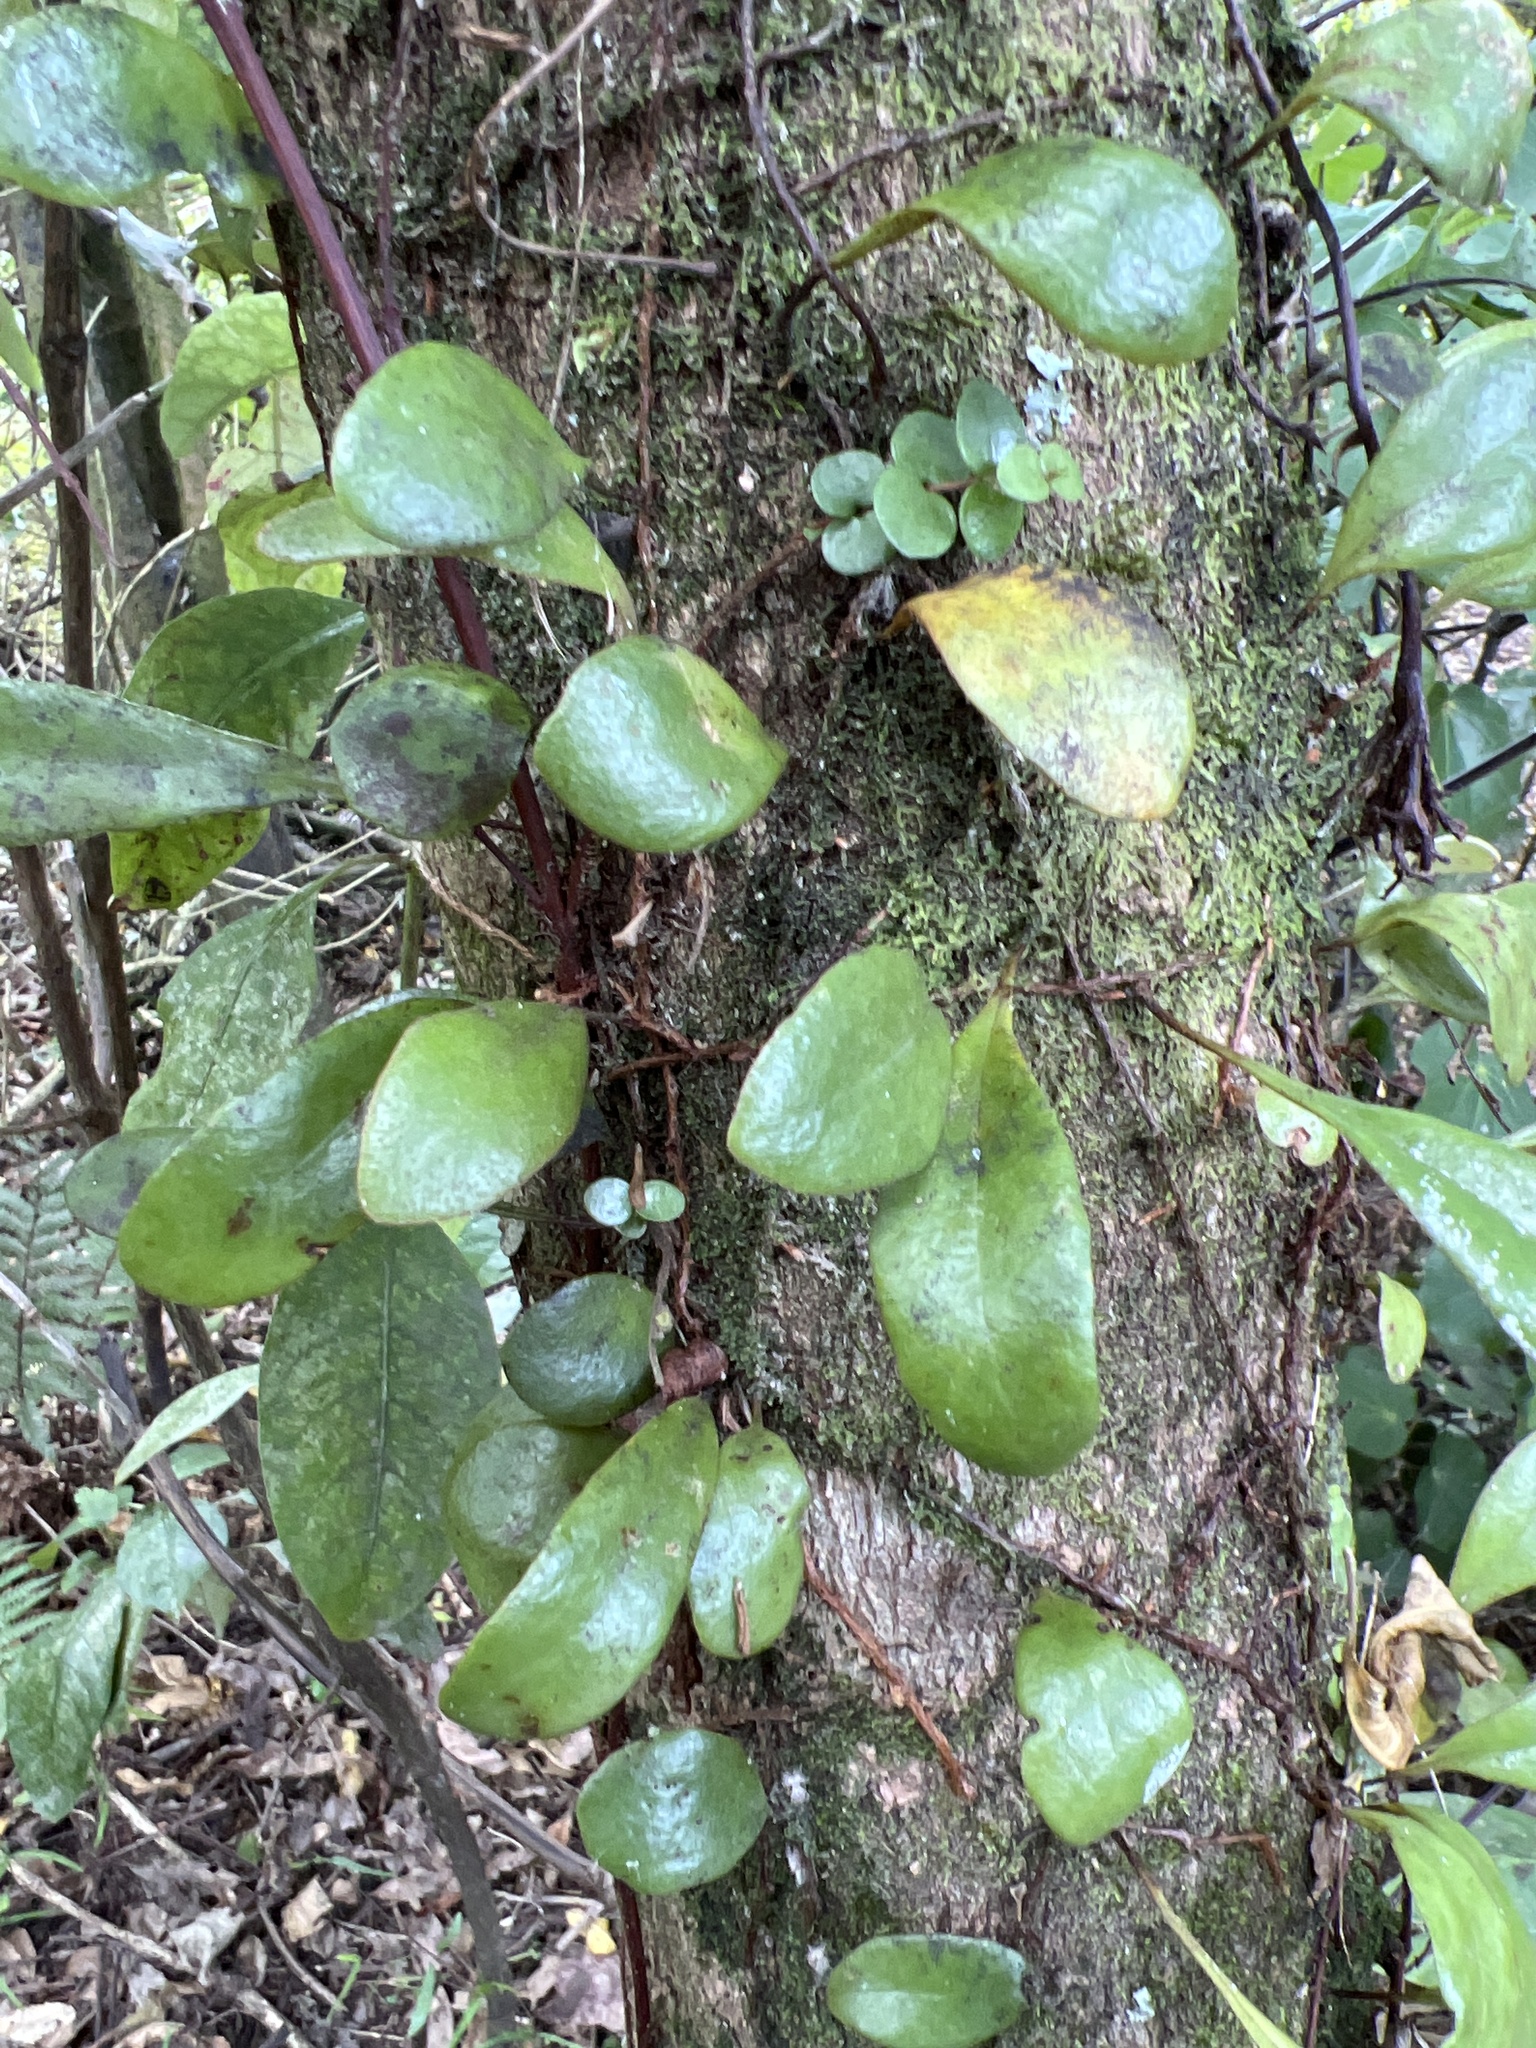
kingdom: Plantae
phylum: Tracheophyta
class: Polypodiopsida
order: Polypodiales
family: Polypodiaceae
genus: Pyrrosia
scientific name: Pyrrosia eleagnifolia
